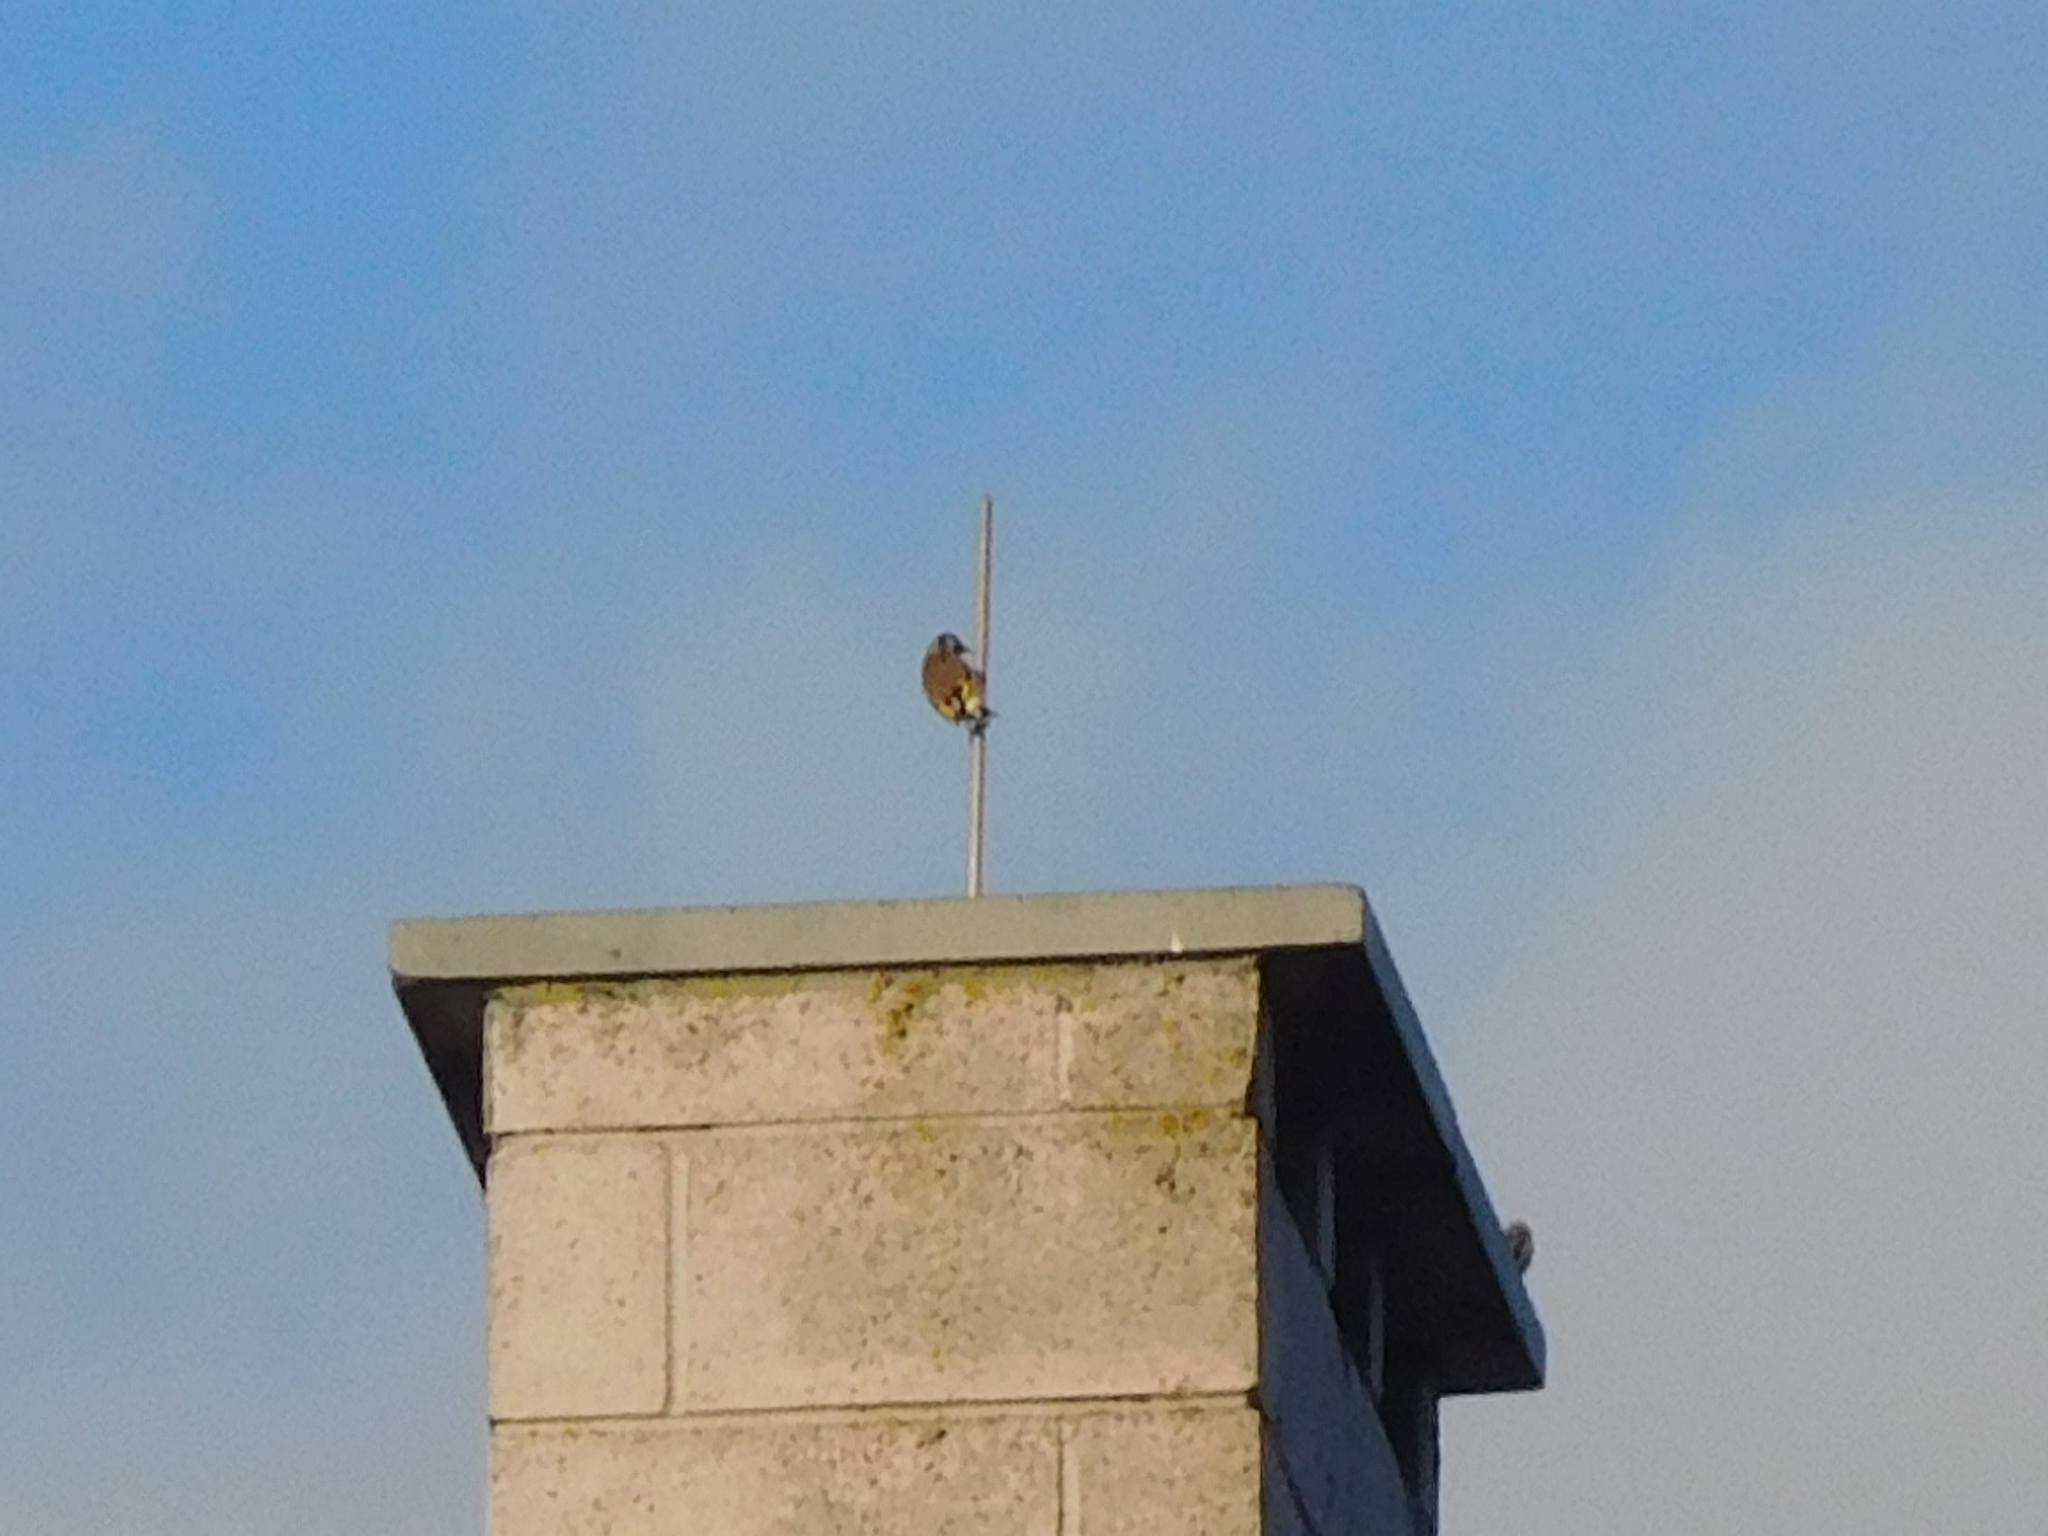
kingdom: Animalia
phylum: Chordata
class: Aves
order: Passeriformes
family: Fringillidae
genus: Carduelis
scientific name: Carduelis carduelis
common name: European goldfinch
